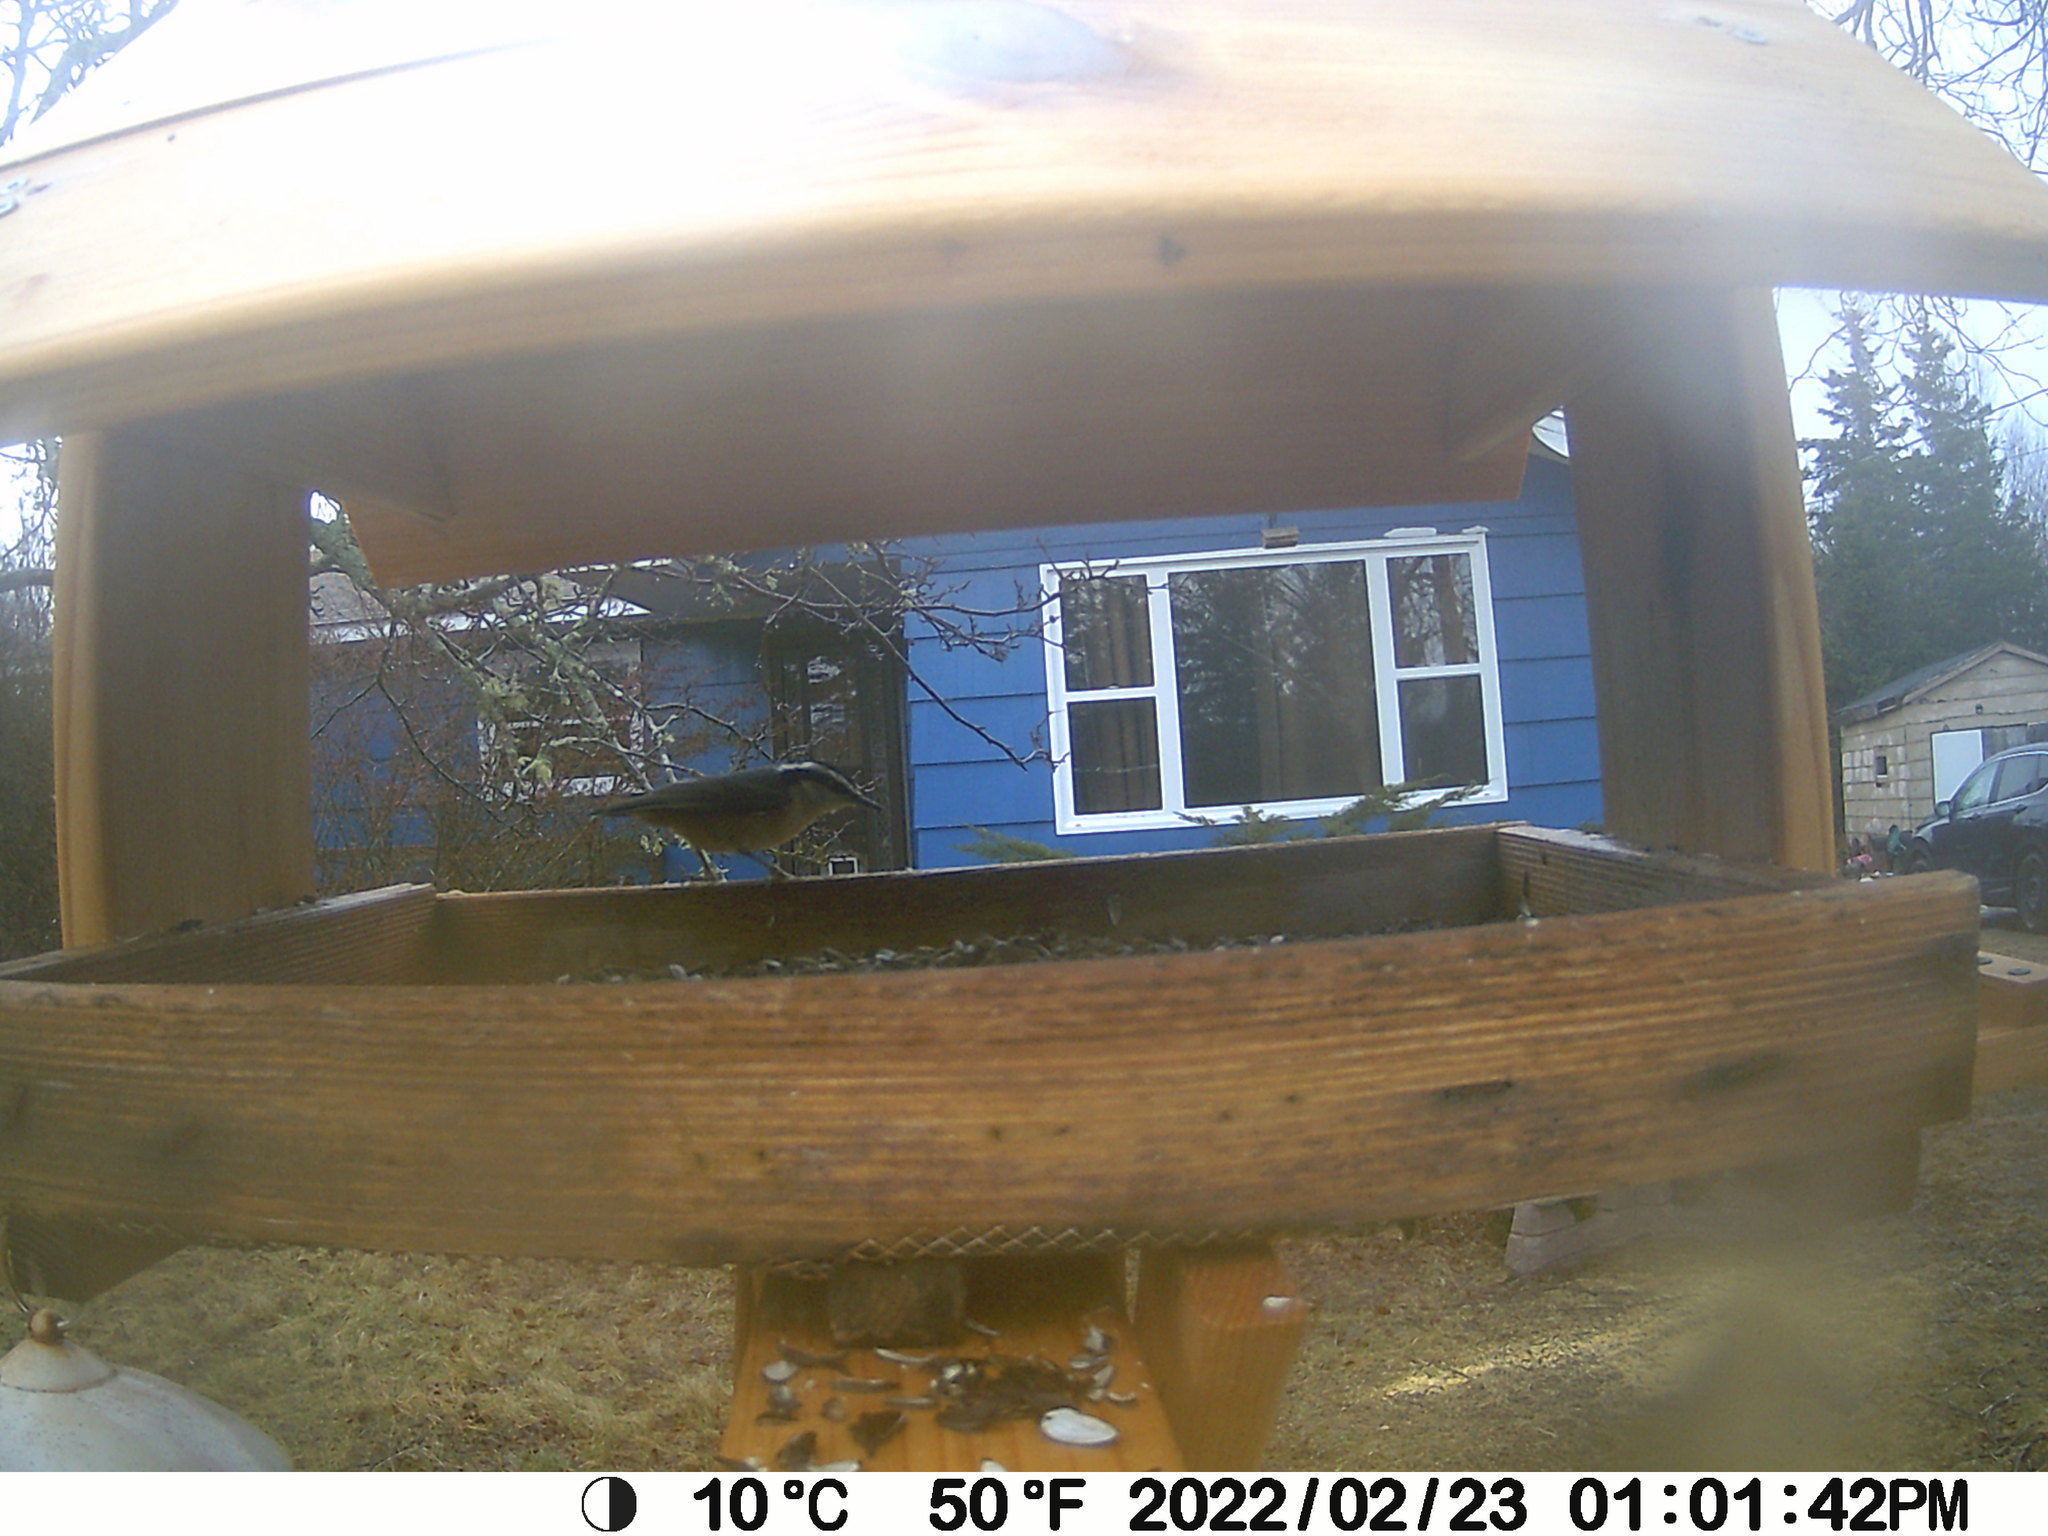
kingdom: Animalia
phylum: Chordata
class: Aves
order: Passeriformes
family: Sittidae
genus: Sitta
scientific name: Sitta canadensis
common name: Red-breasted nuthatch
